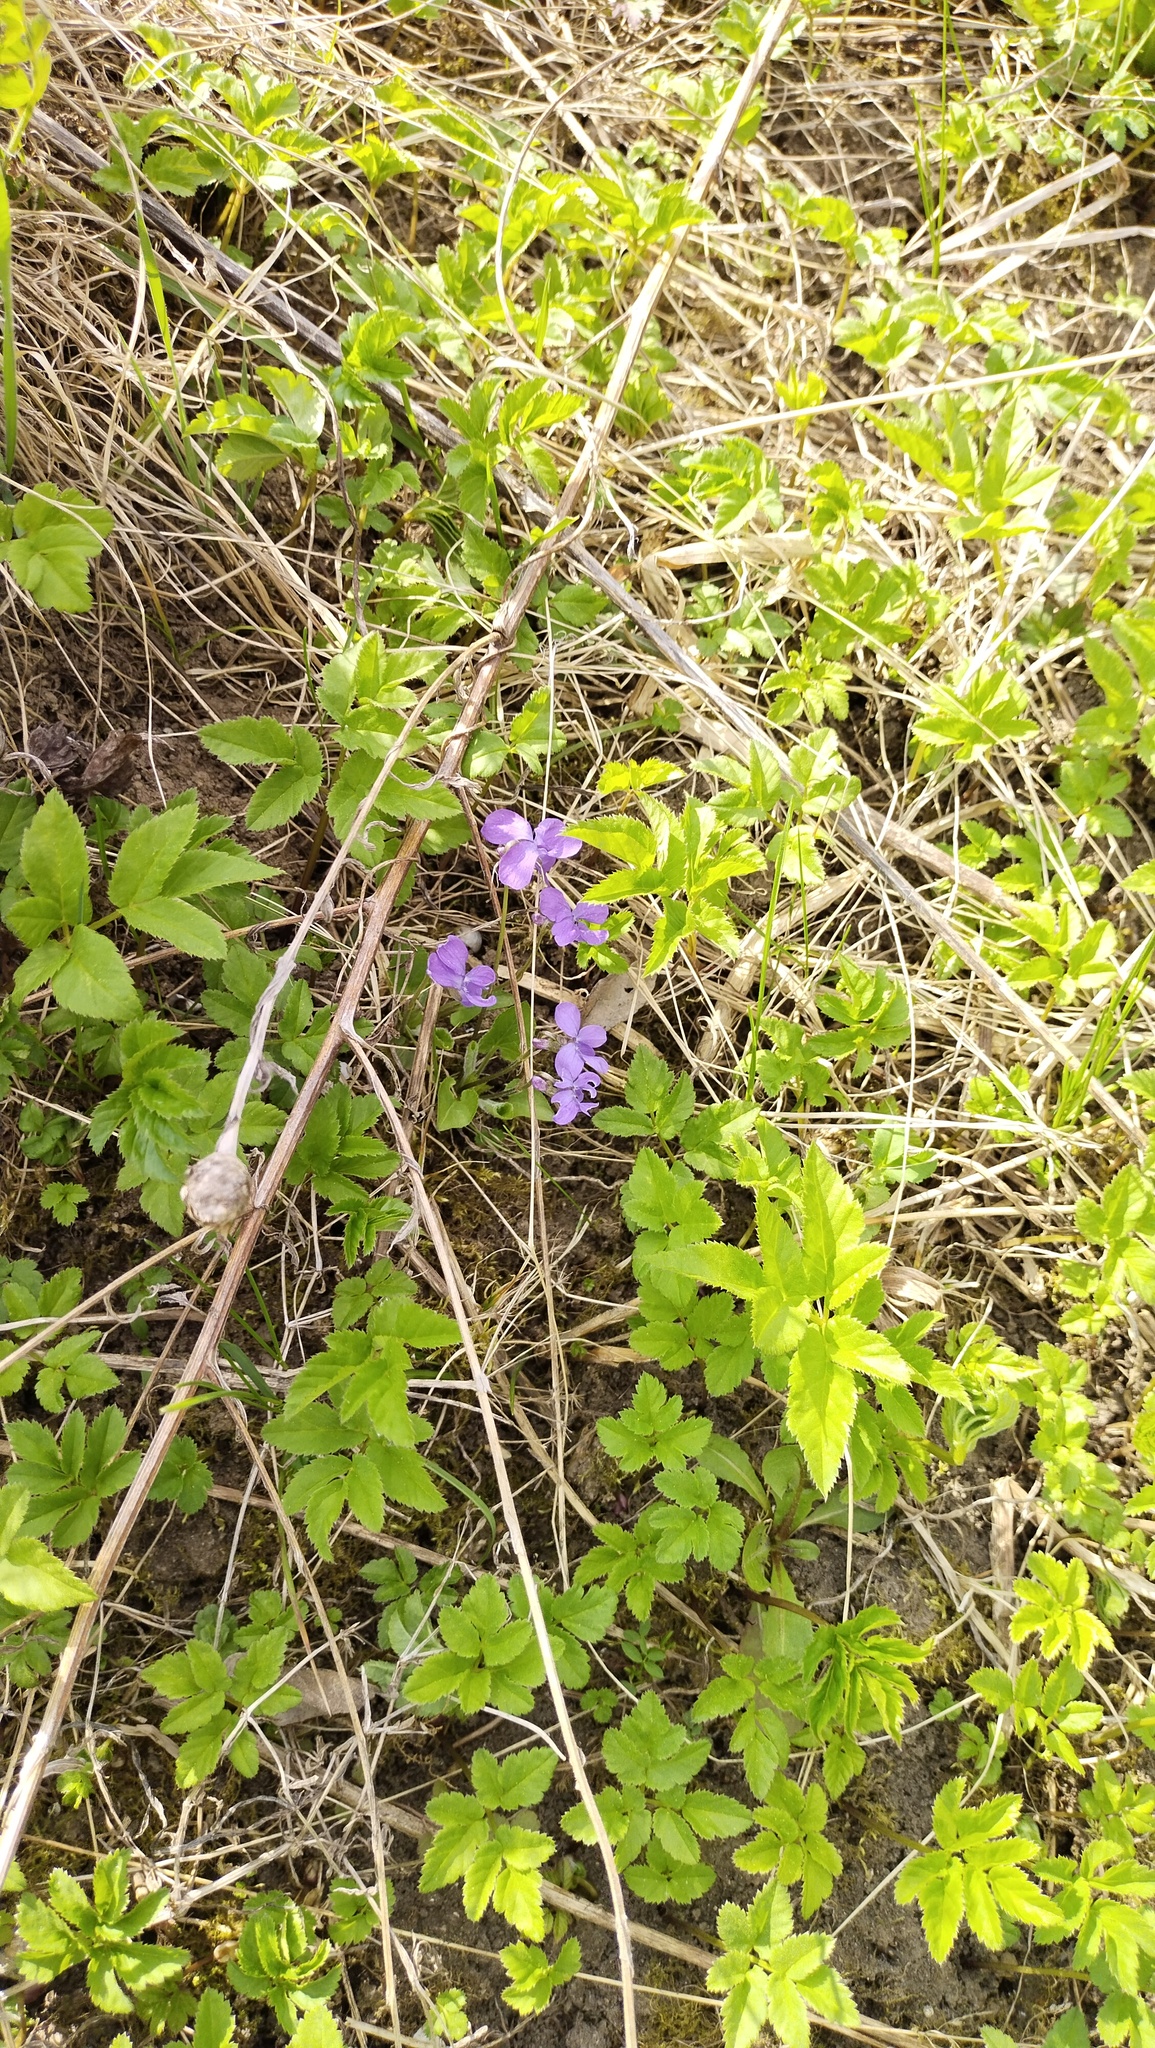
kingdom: Plantae
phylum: Tracheophyta
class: Magnoliopsida
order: Malpighiales
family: Violaceae
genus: Viola
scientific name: Viola hirta
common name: Hairy violet
